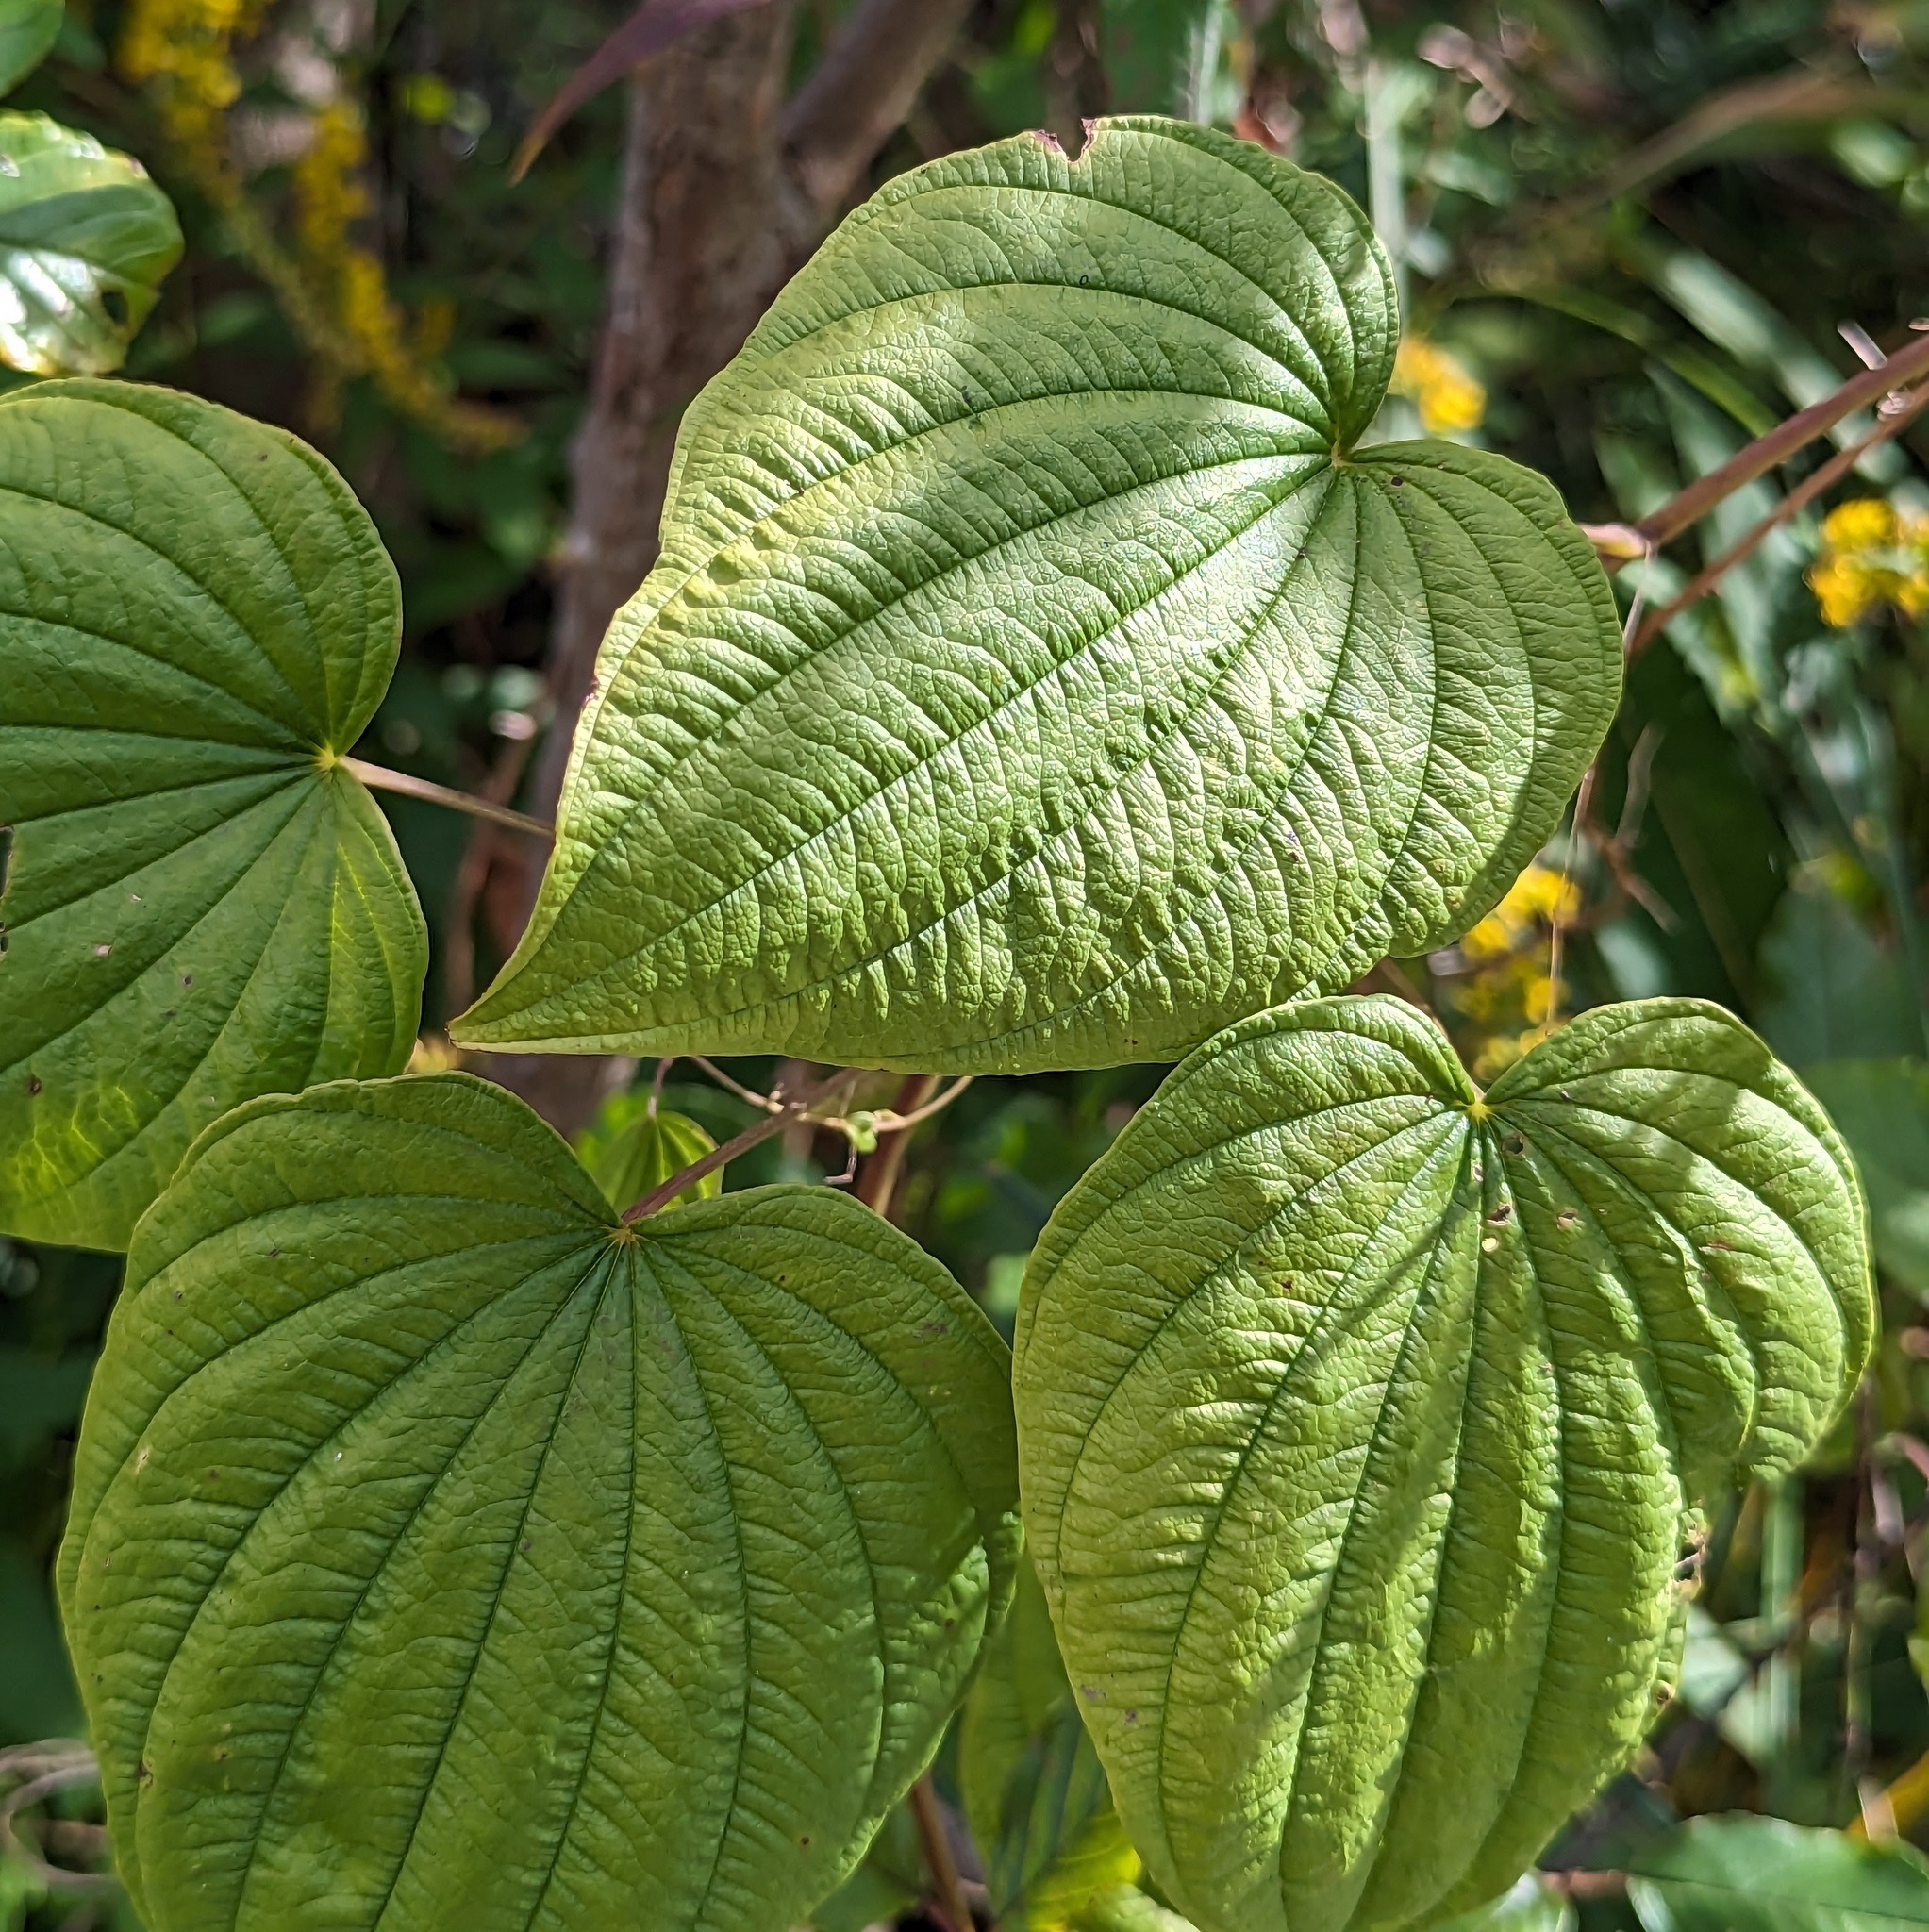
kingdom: Plantae
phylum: Tracheophyta
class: Liliopsida
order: Dioscoreales
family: Dioscoreaceae
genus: Dioscorea
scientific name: Dioscorea villosa
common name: Wild yam
